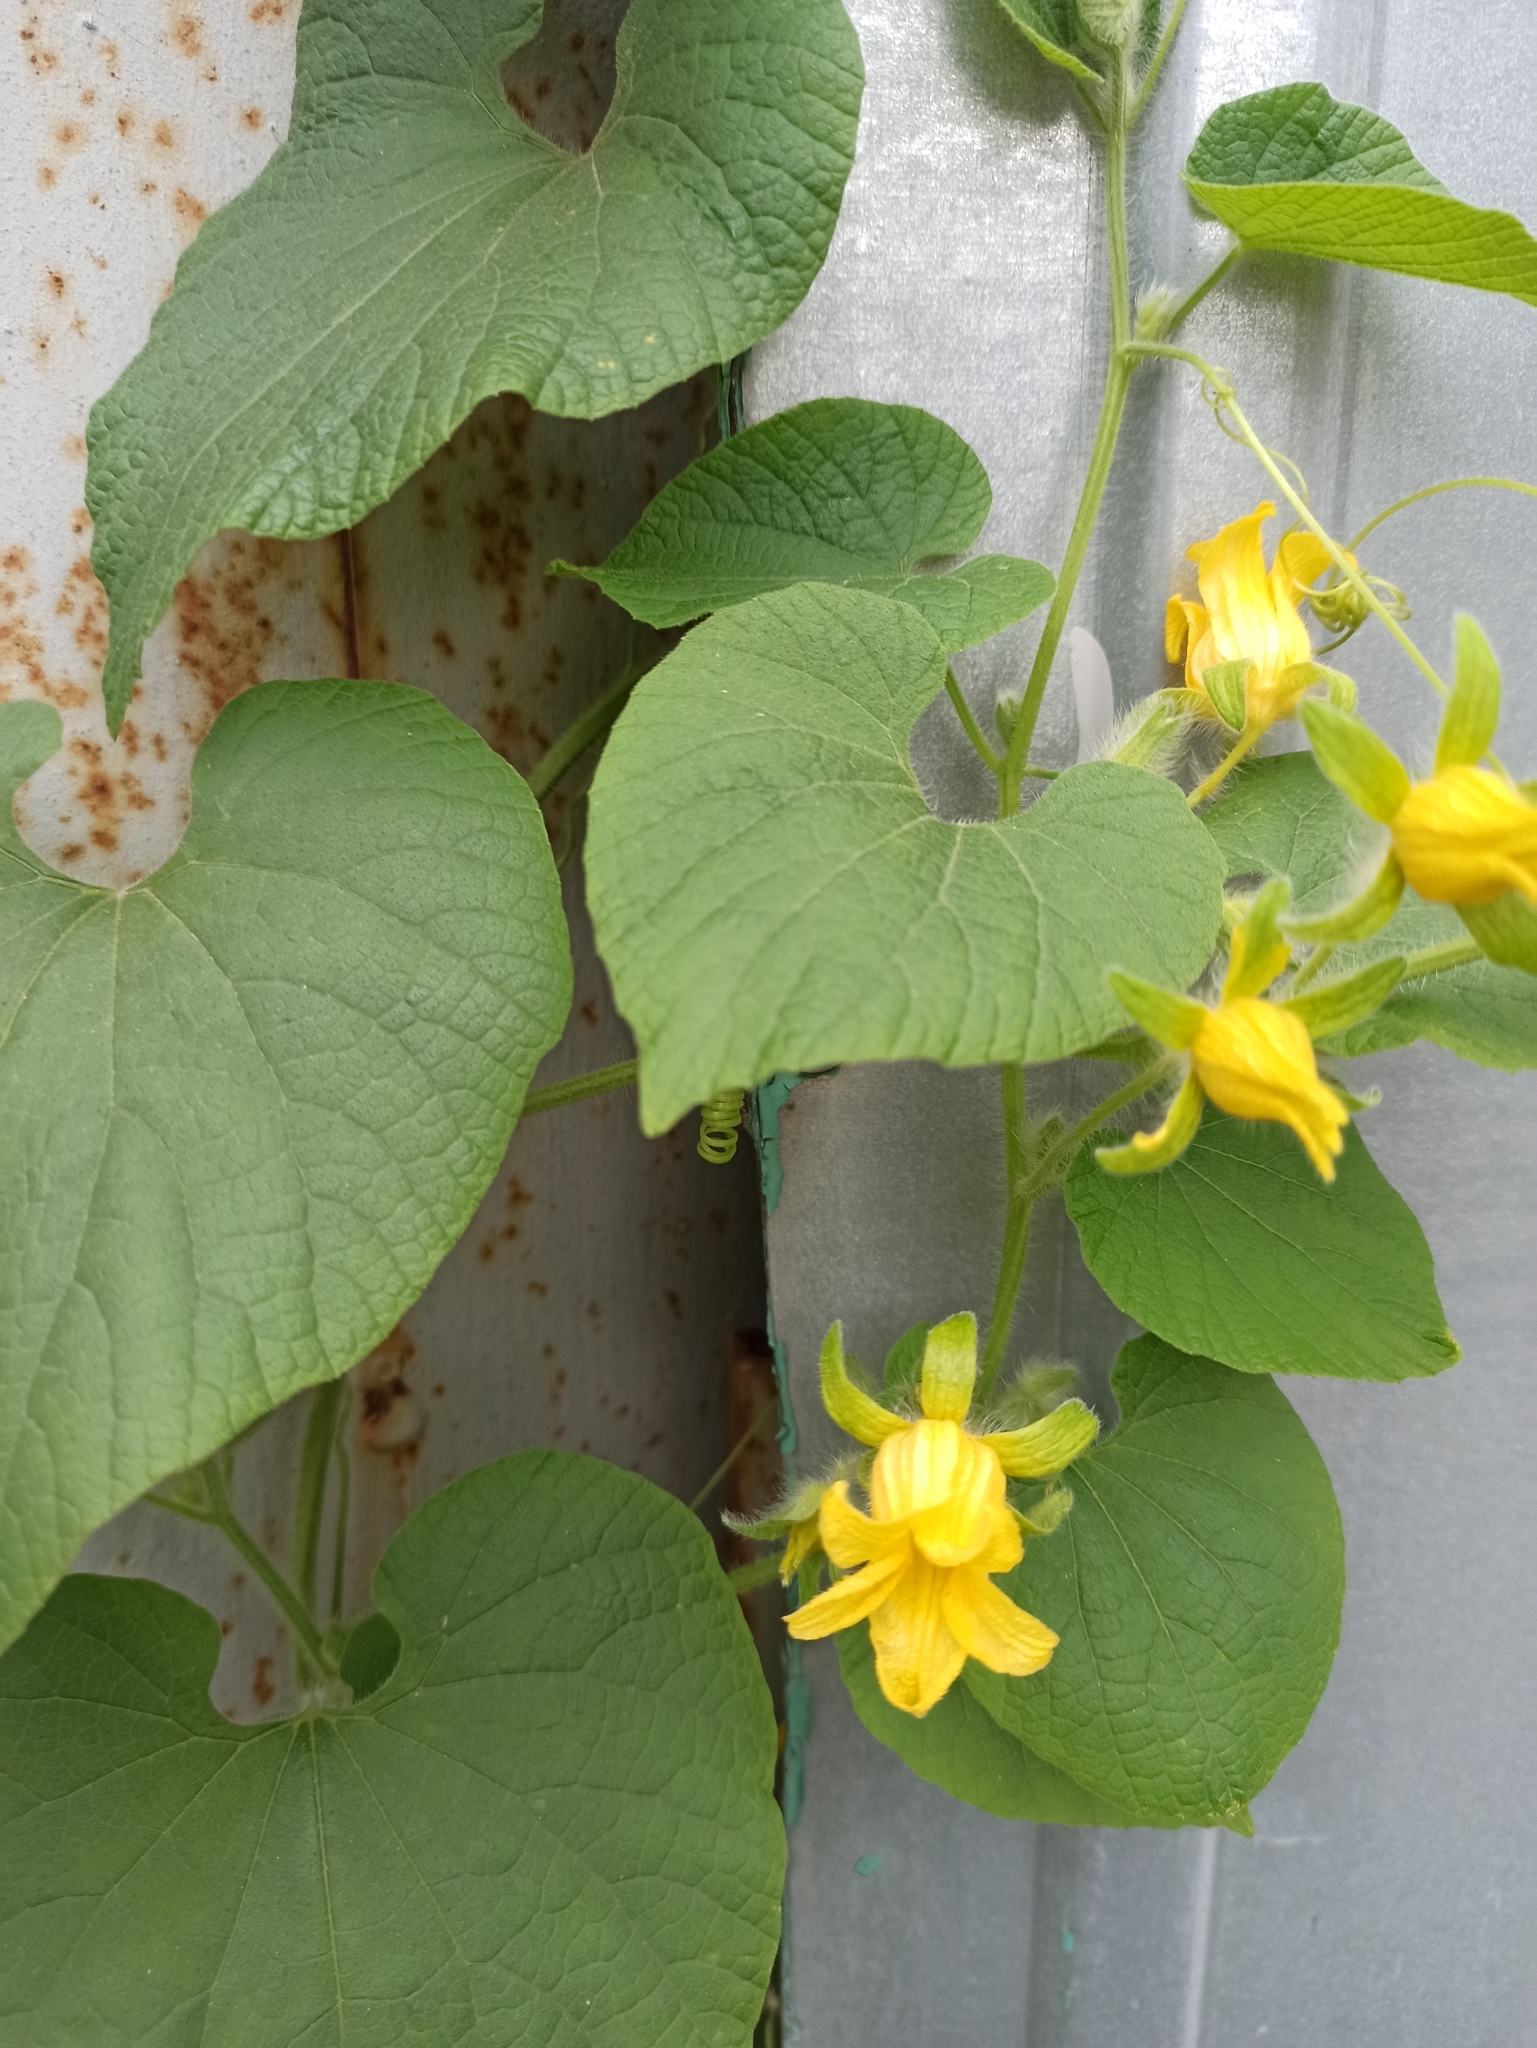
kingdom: Plantae
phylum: Tracheophyta
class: Magnoliopsida
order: Cucurbitales
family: Cucurbitaceae
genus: Thladiantha
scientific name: Thladiantha dubia
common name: Manchu tubergourd
